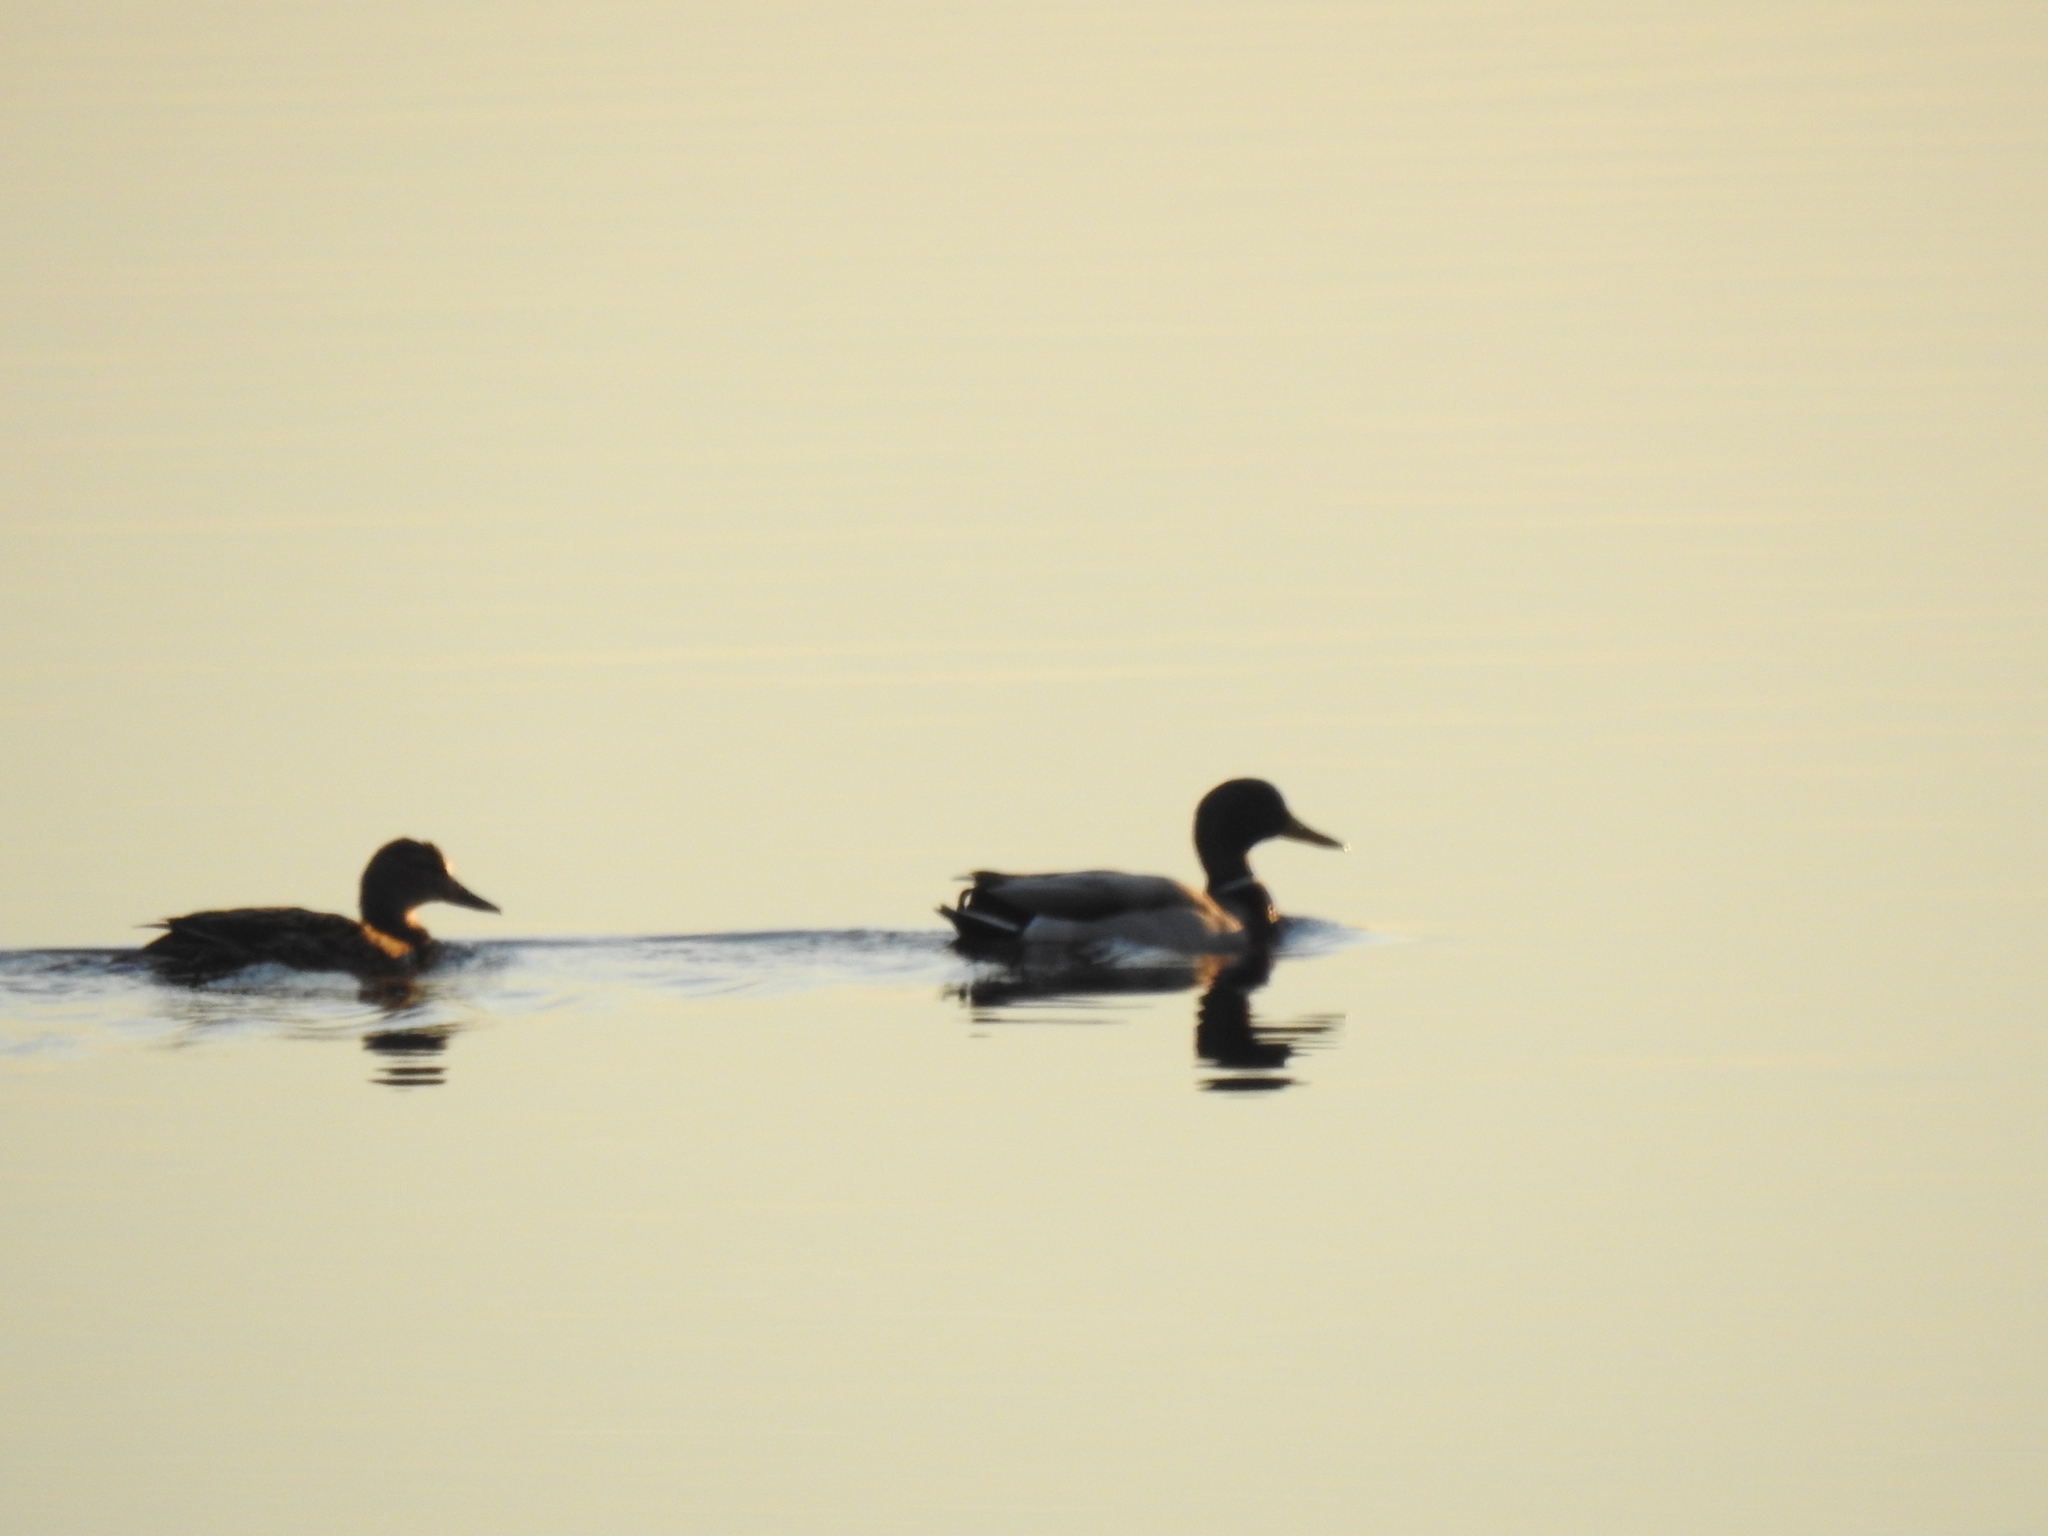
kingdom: Animalia
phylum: Chordata
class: Aves
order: Anseriformes
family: Anatidae
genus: Anas
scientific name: Anas platyrhynchos
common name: Mallard
